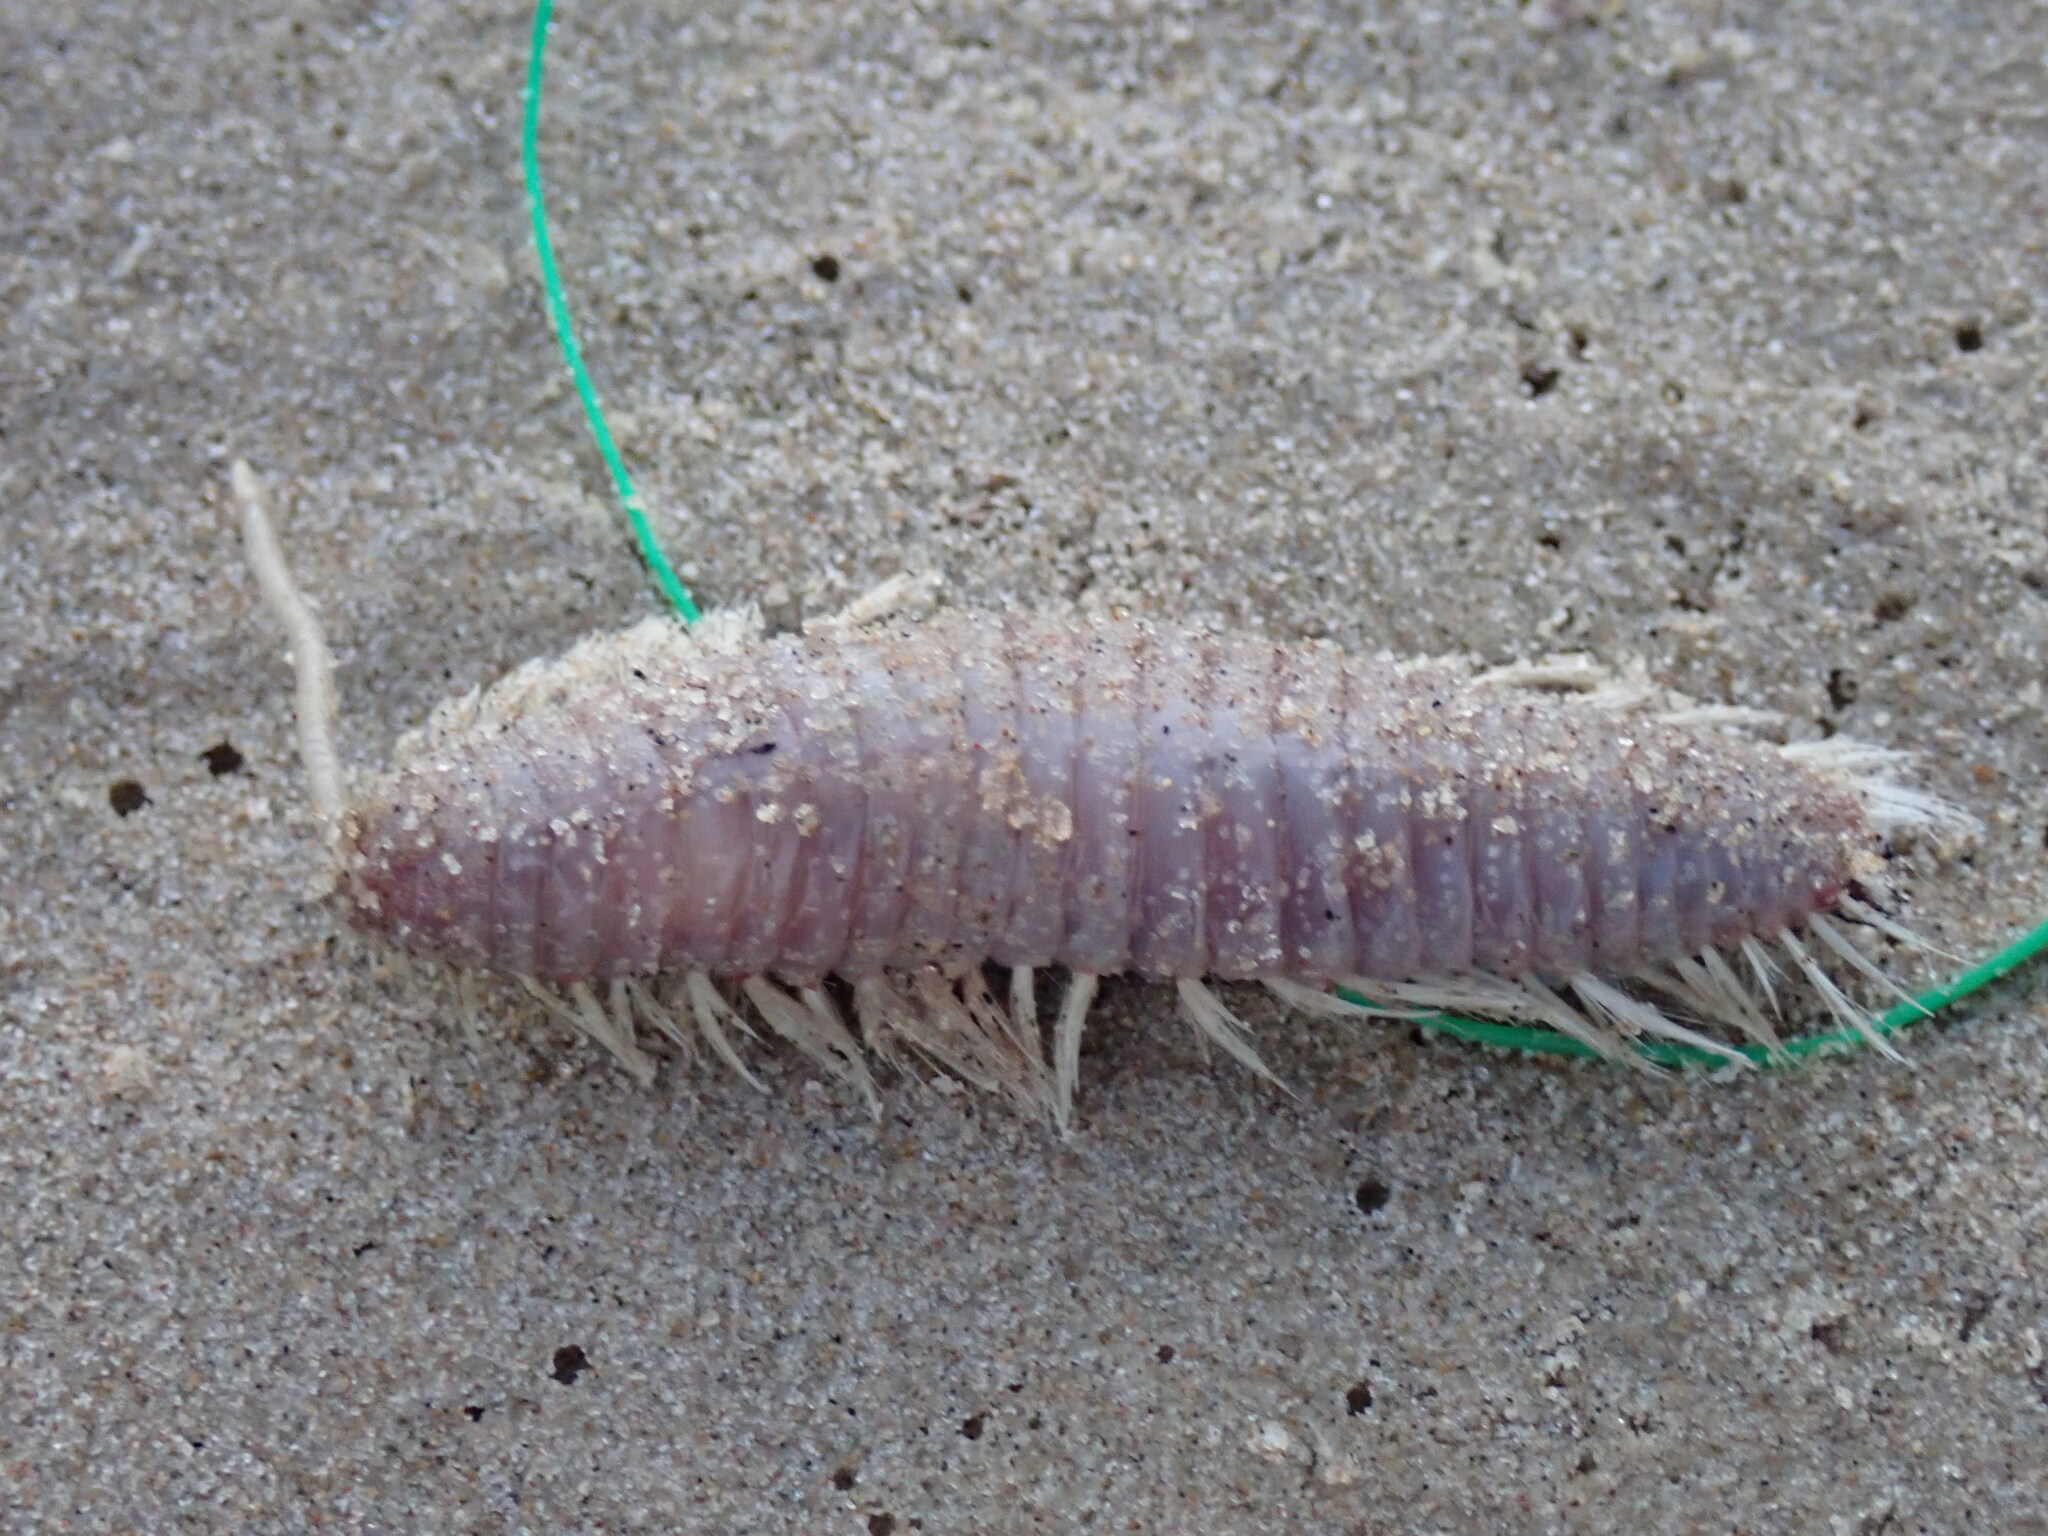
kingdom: Animalia
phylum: Annelida
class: Polychaeta
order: Amphinomida
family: Amphinomidae
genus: Chloeia
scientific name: Chloeia incerta
